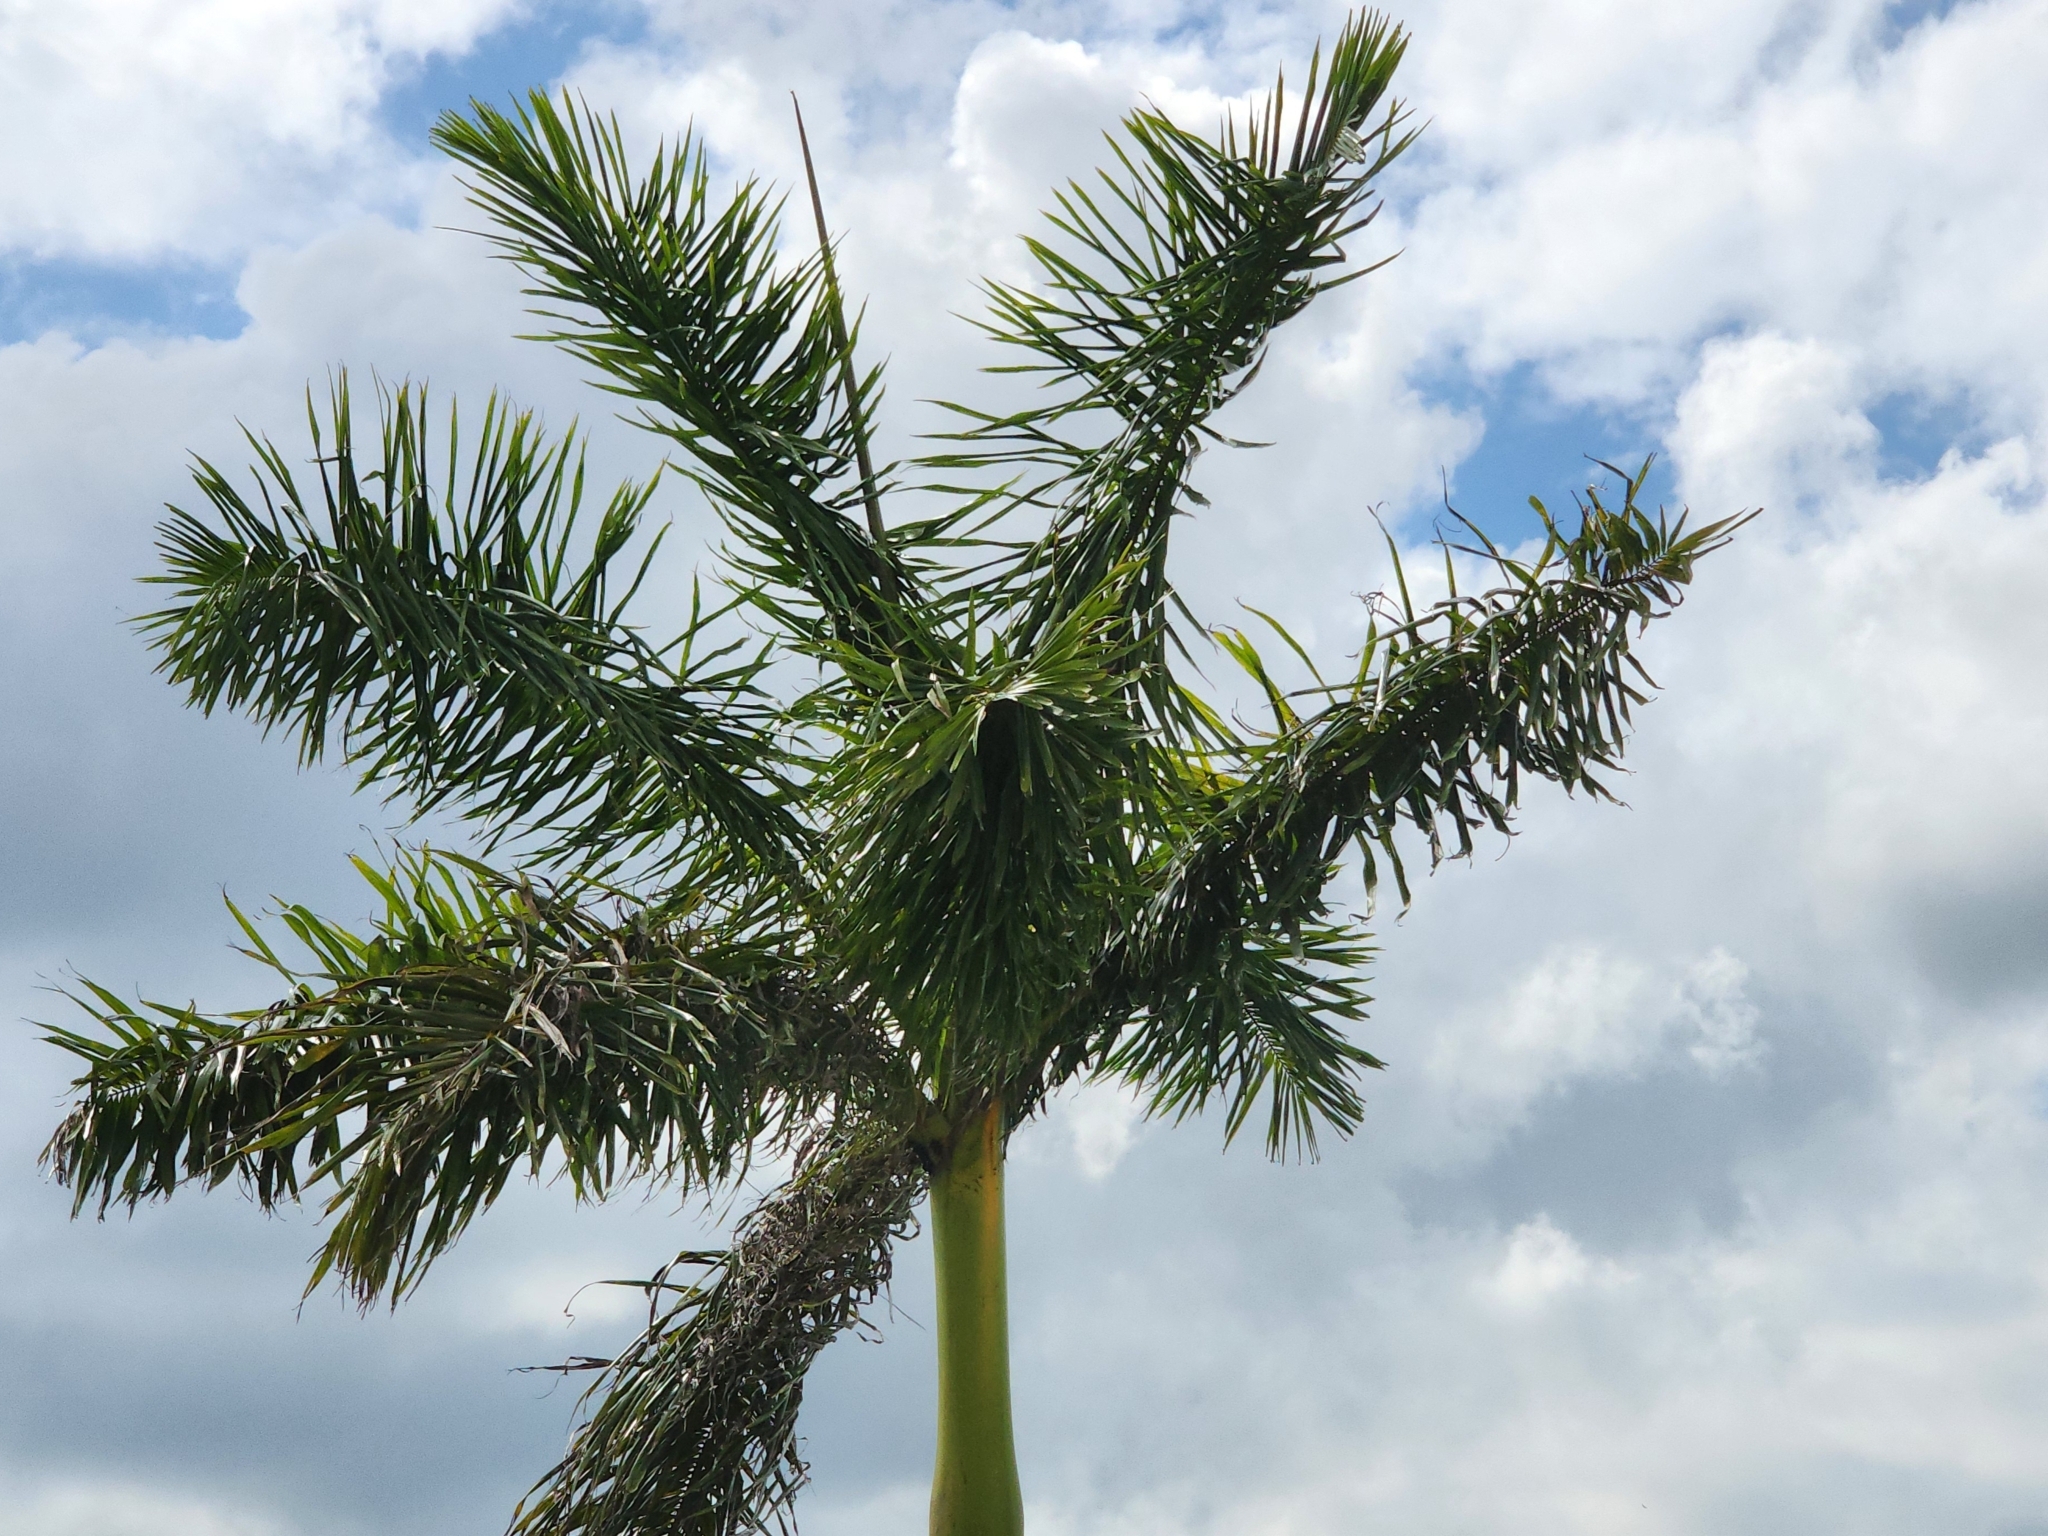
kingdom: Plantae
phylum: Tracheophyta
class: Liliopsida
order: Arecales
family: Arecaceae
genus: Roystonea
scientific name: Roystonea regia
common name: Florida royal palm
